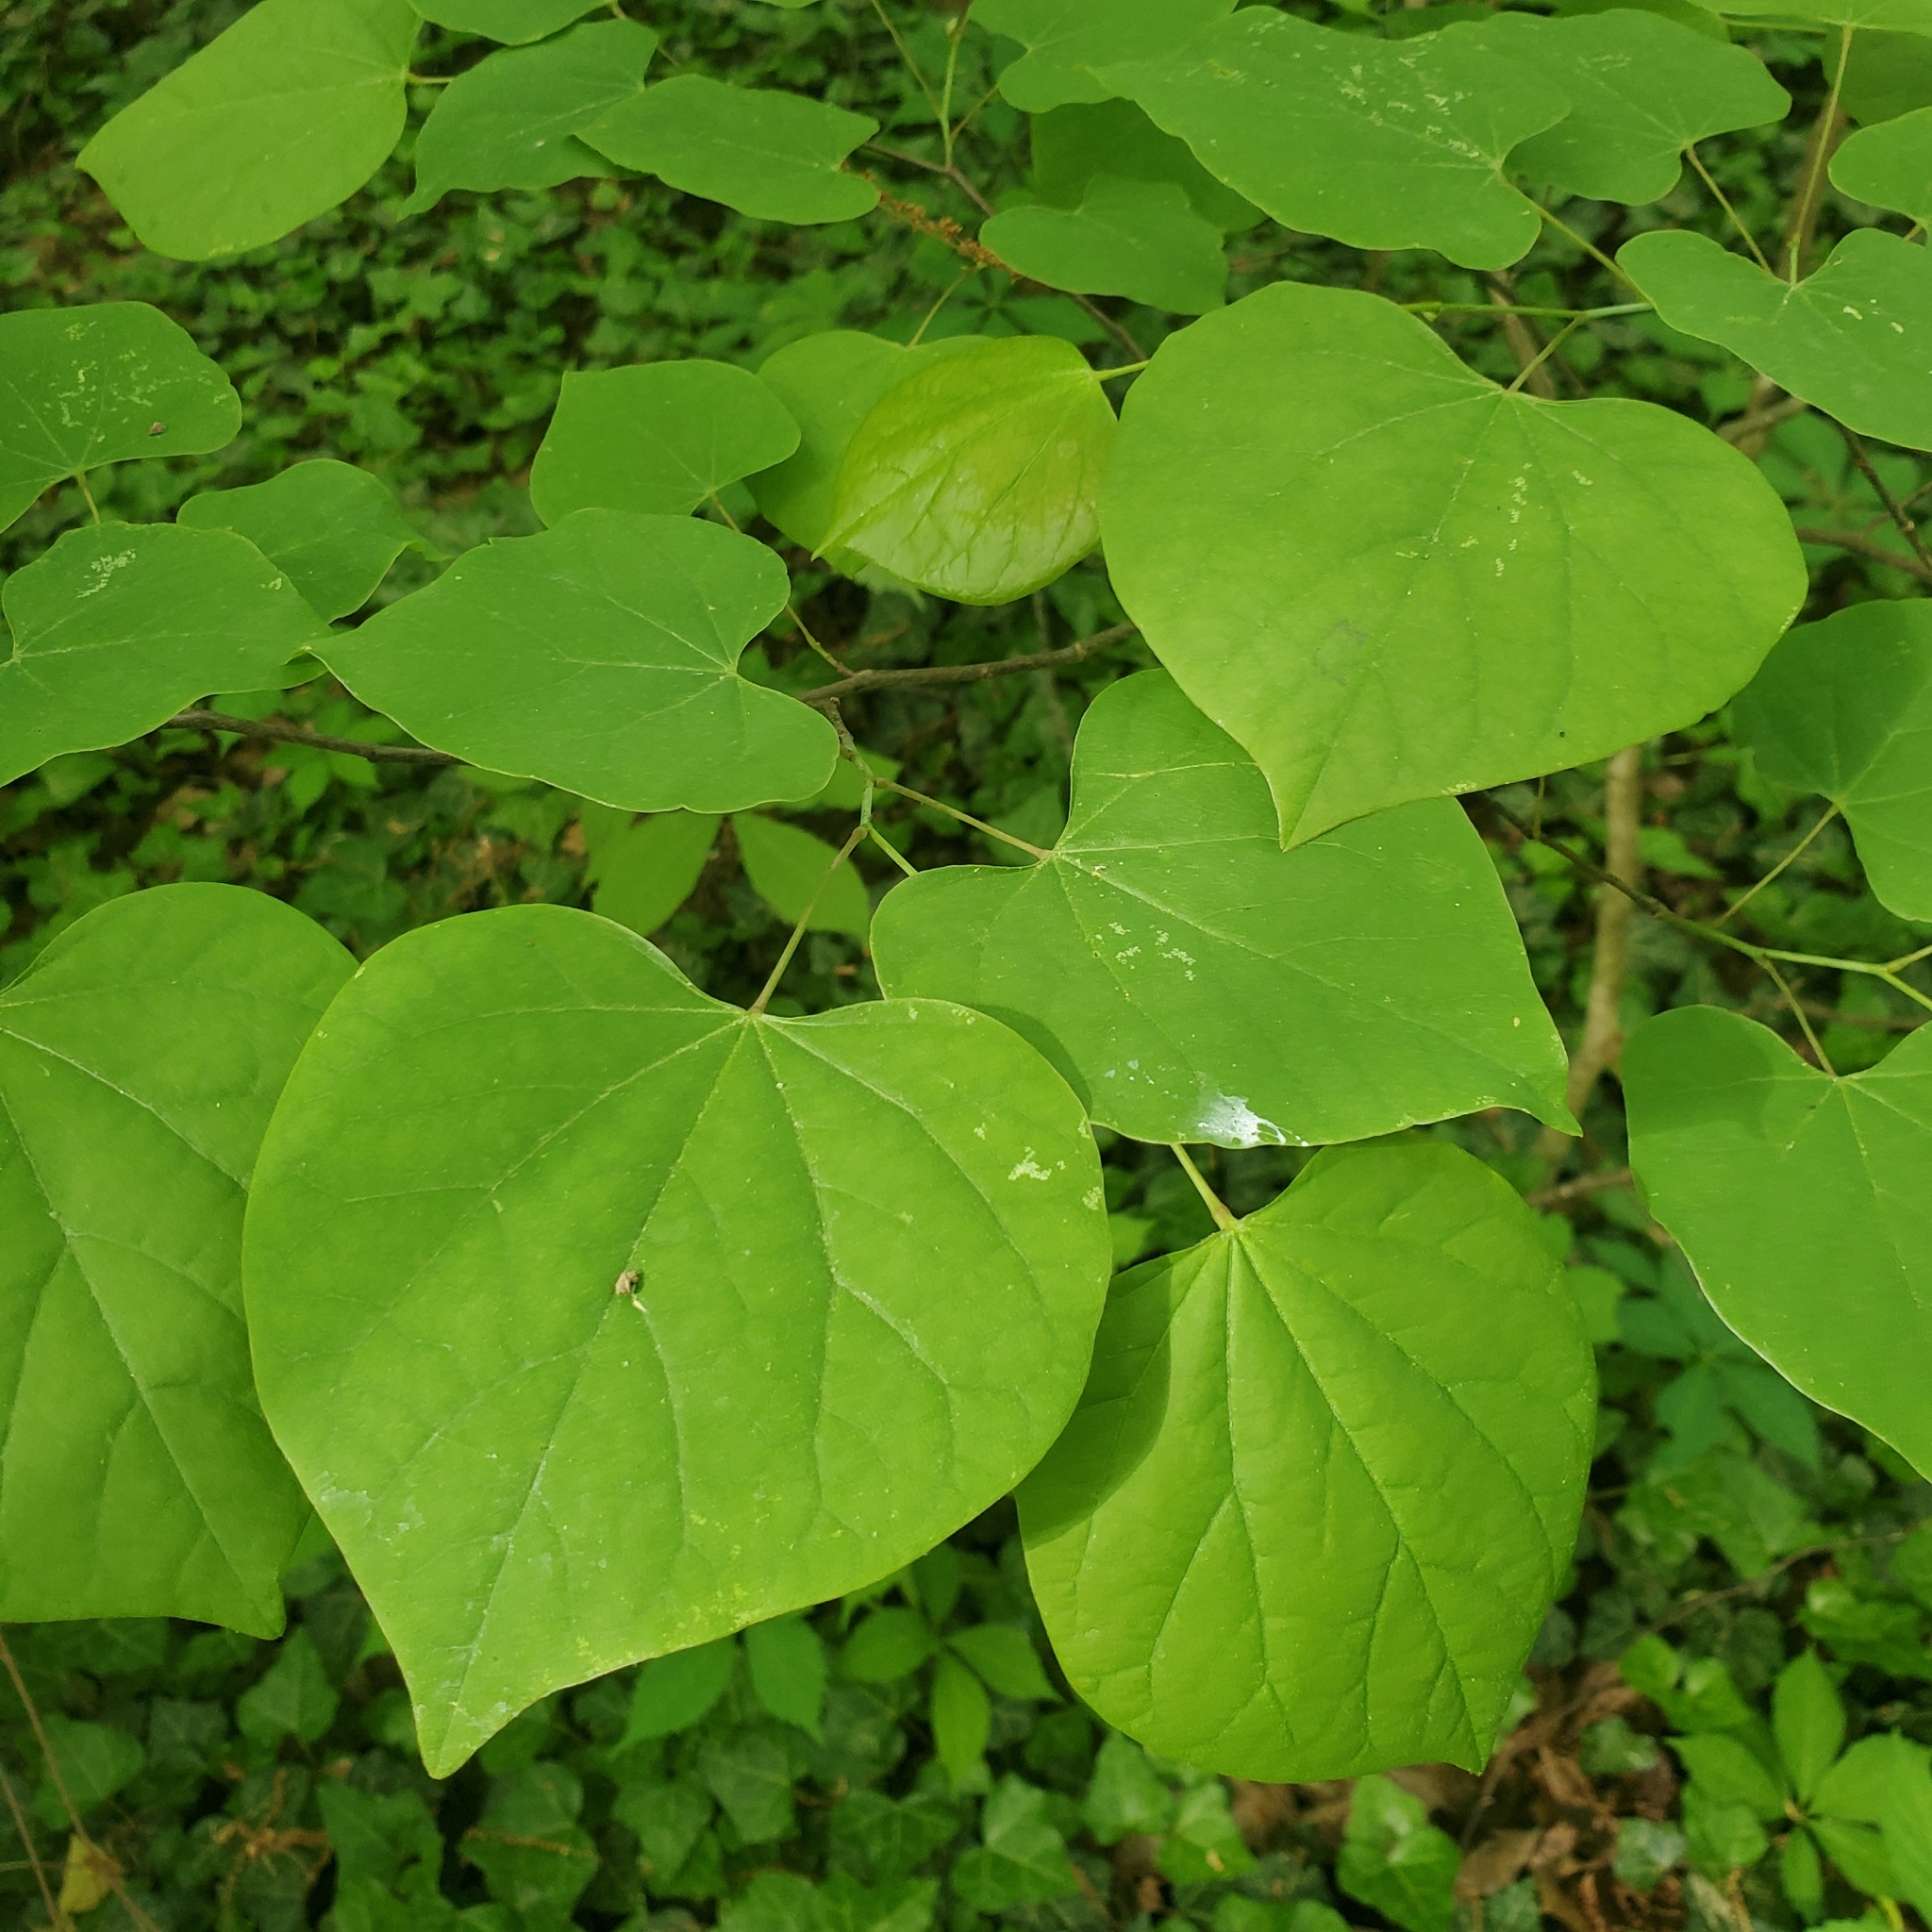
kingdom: Plantae
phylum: Tracheophyta
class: Magnoliopsida
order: Fabales
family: Fabaceae
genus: Cercis
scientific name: Cercis canadensis
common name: Eastern redbud
